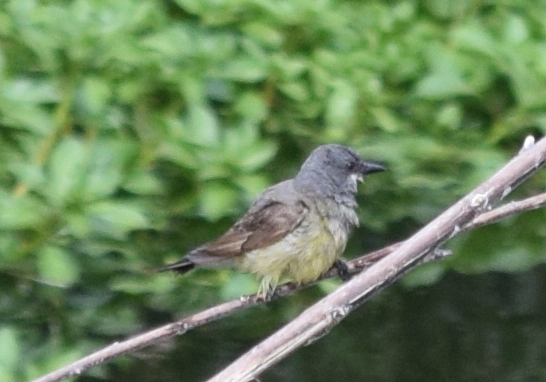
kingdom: Animalia
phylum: Chordata
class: Aves
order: Passeriformes
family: Tyrannidae
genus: Tyrannus
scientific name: Tyrannus vociferans
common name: Cassin's kingbird
